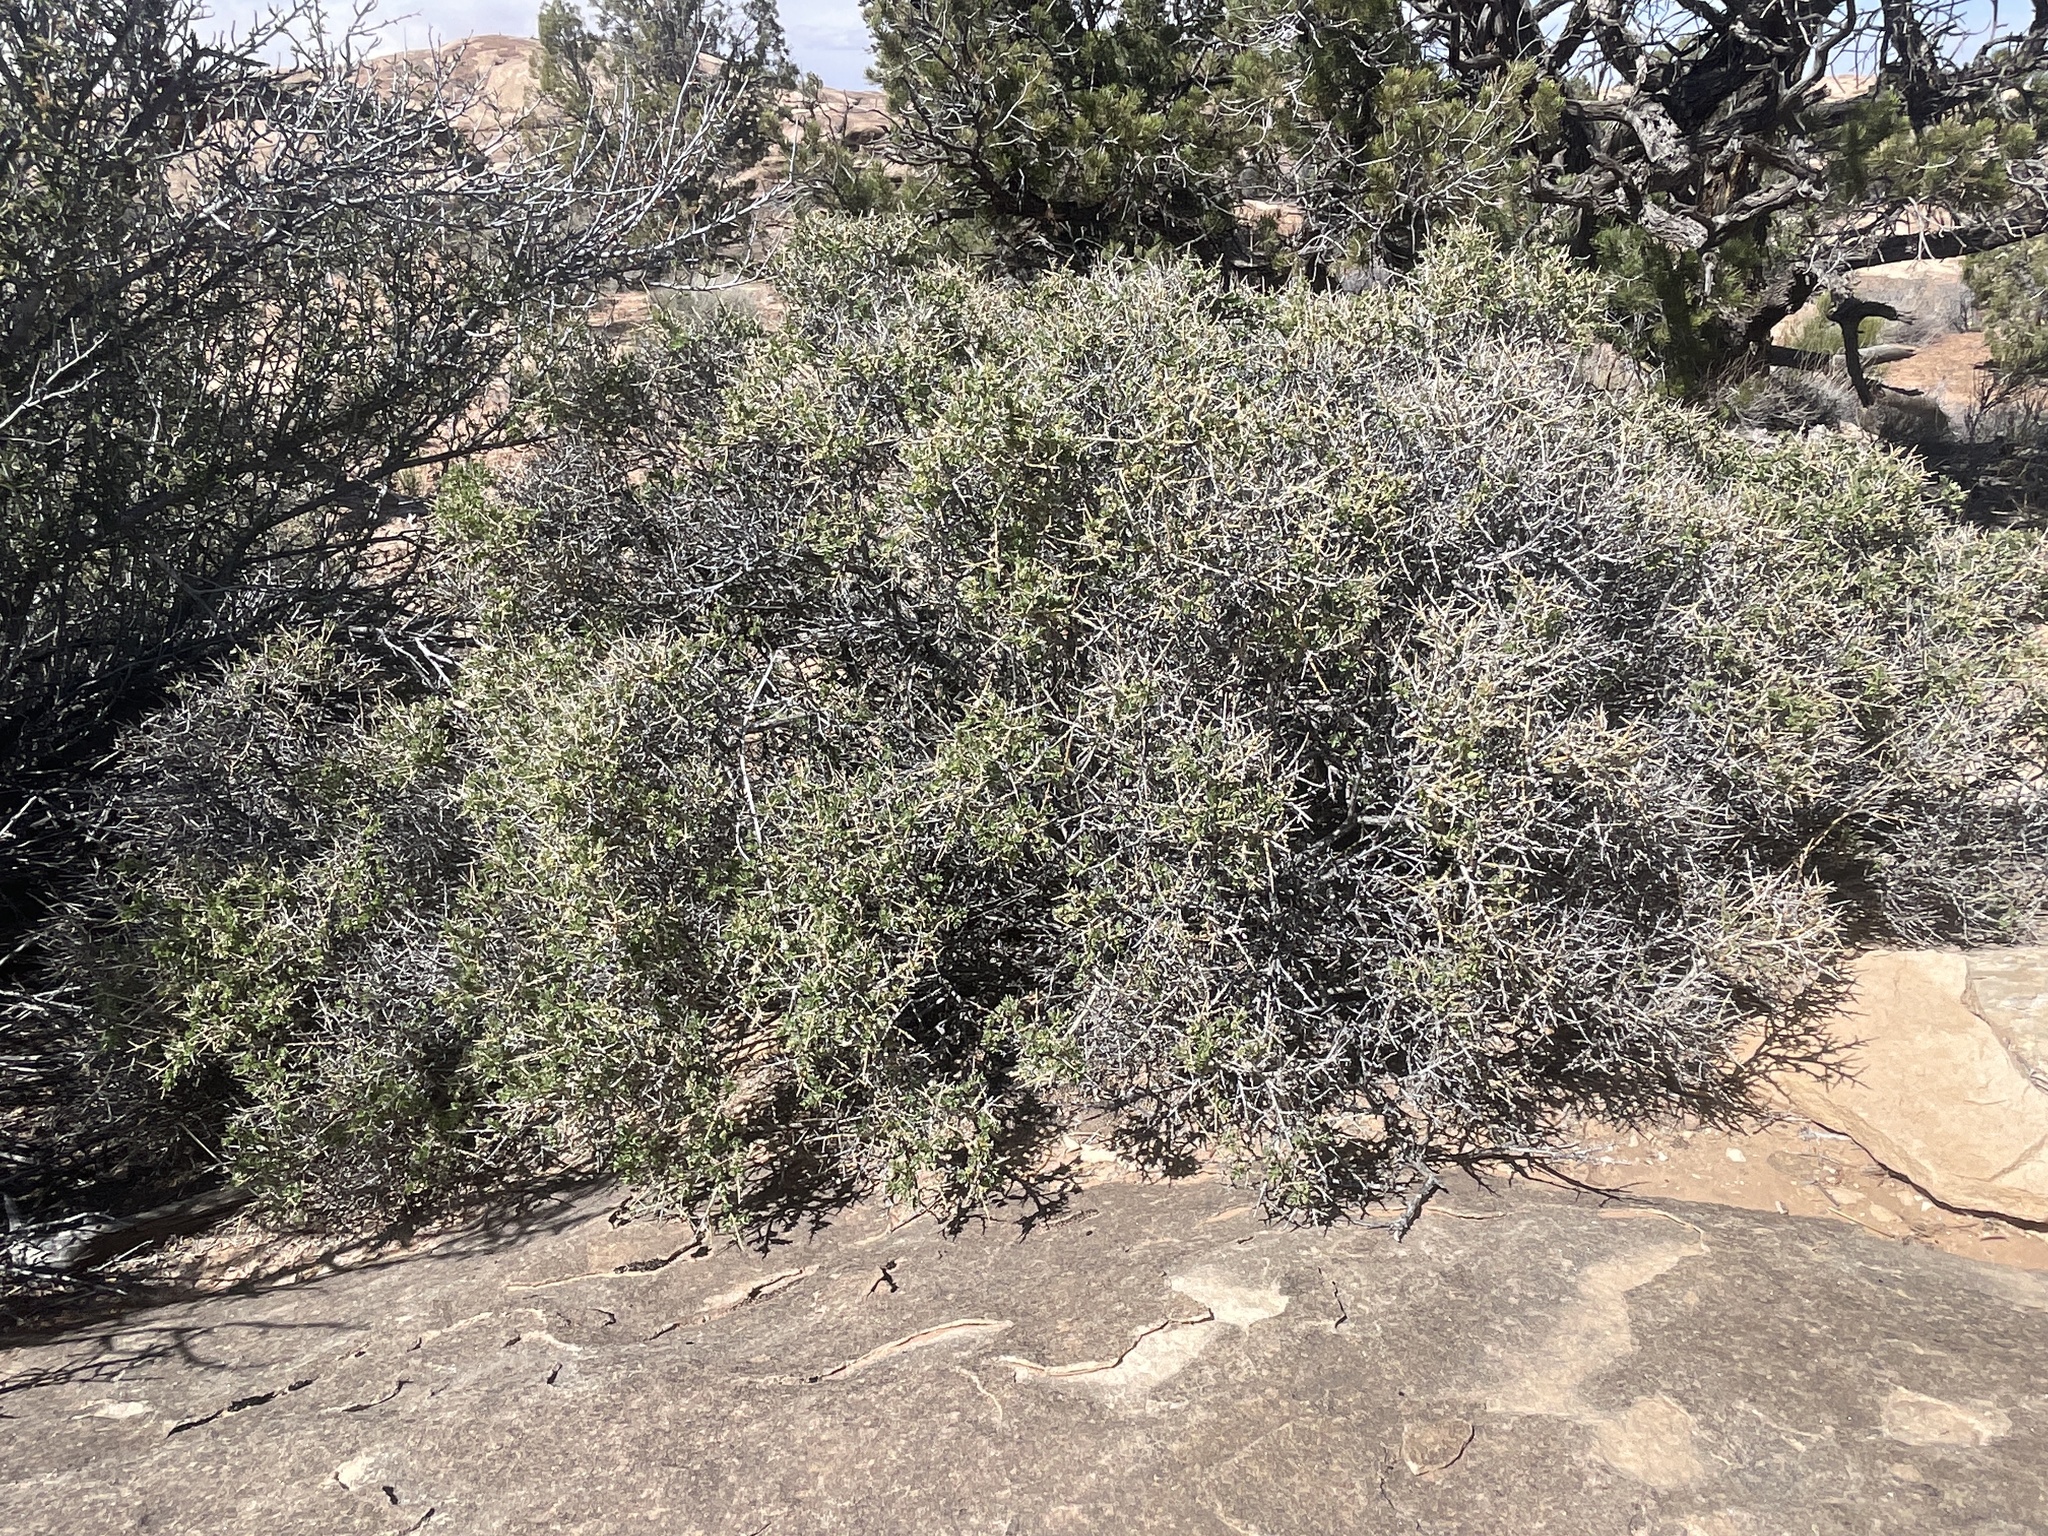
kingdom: Plantae
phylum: Tracheophyta
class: Magnoliopsida
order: Crossosomatales
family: Crossosomataceae
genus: Glossopetalon
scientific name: Glossopetalon spinescens
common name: Spring greasebush
